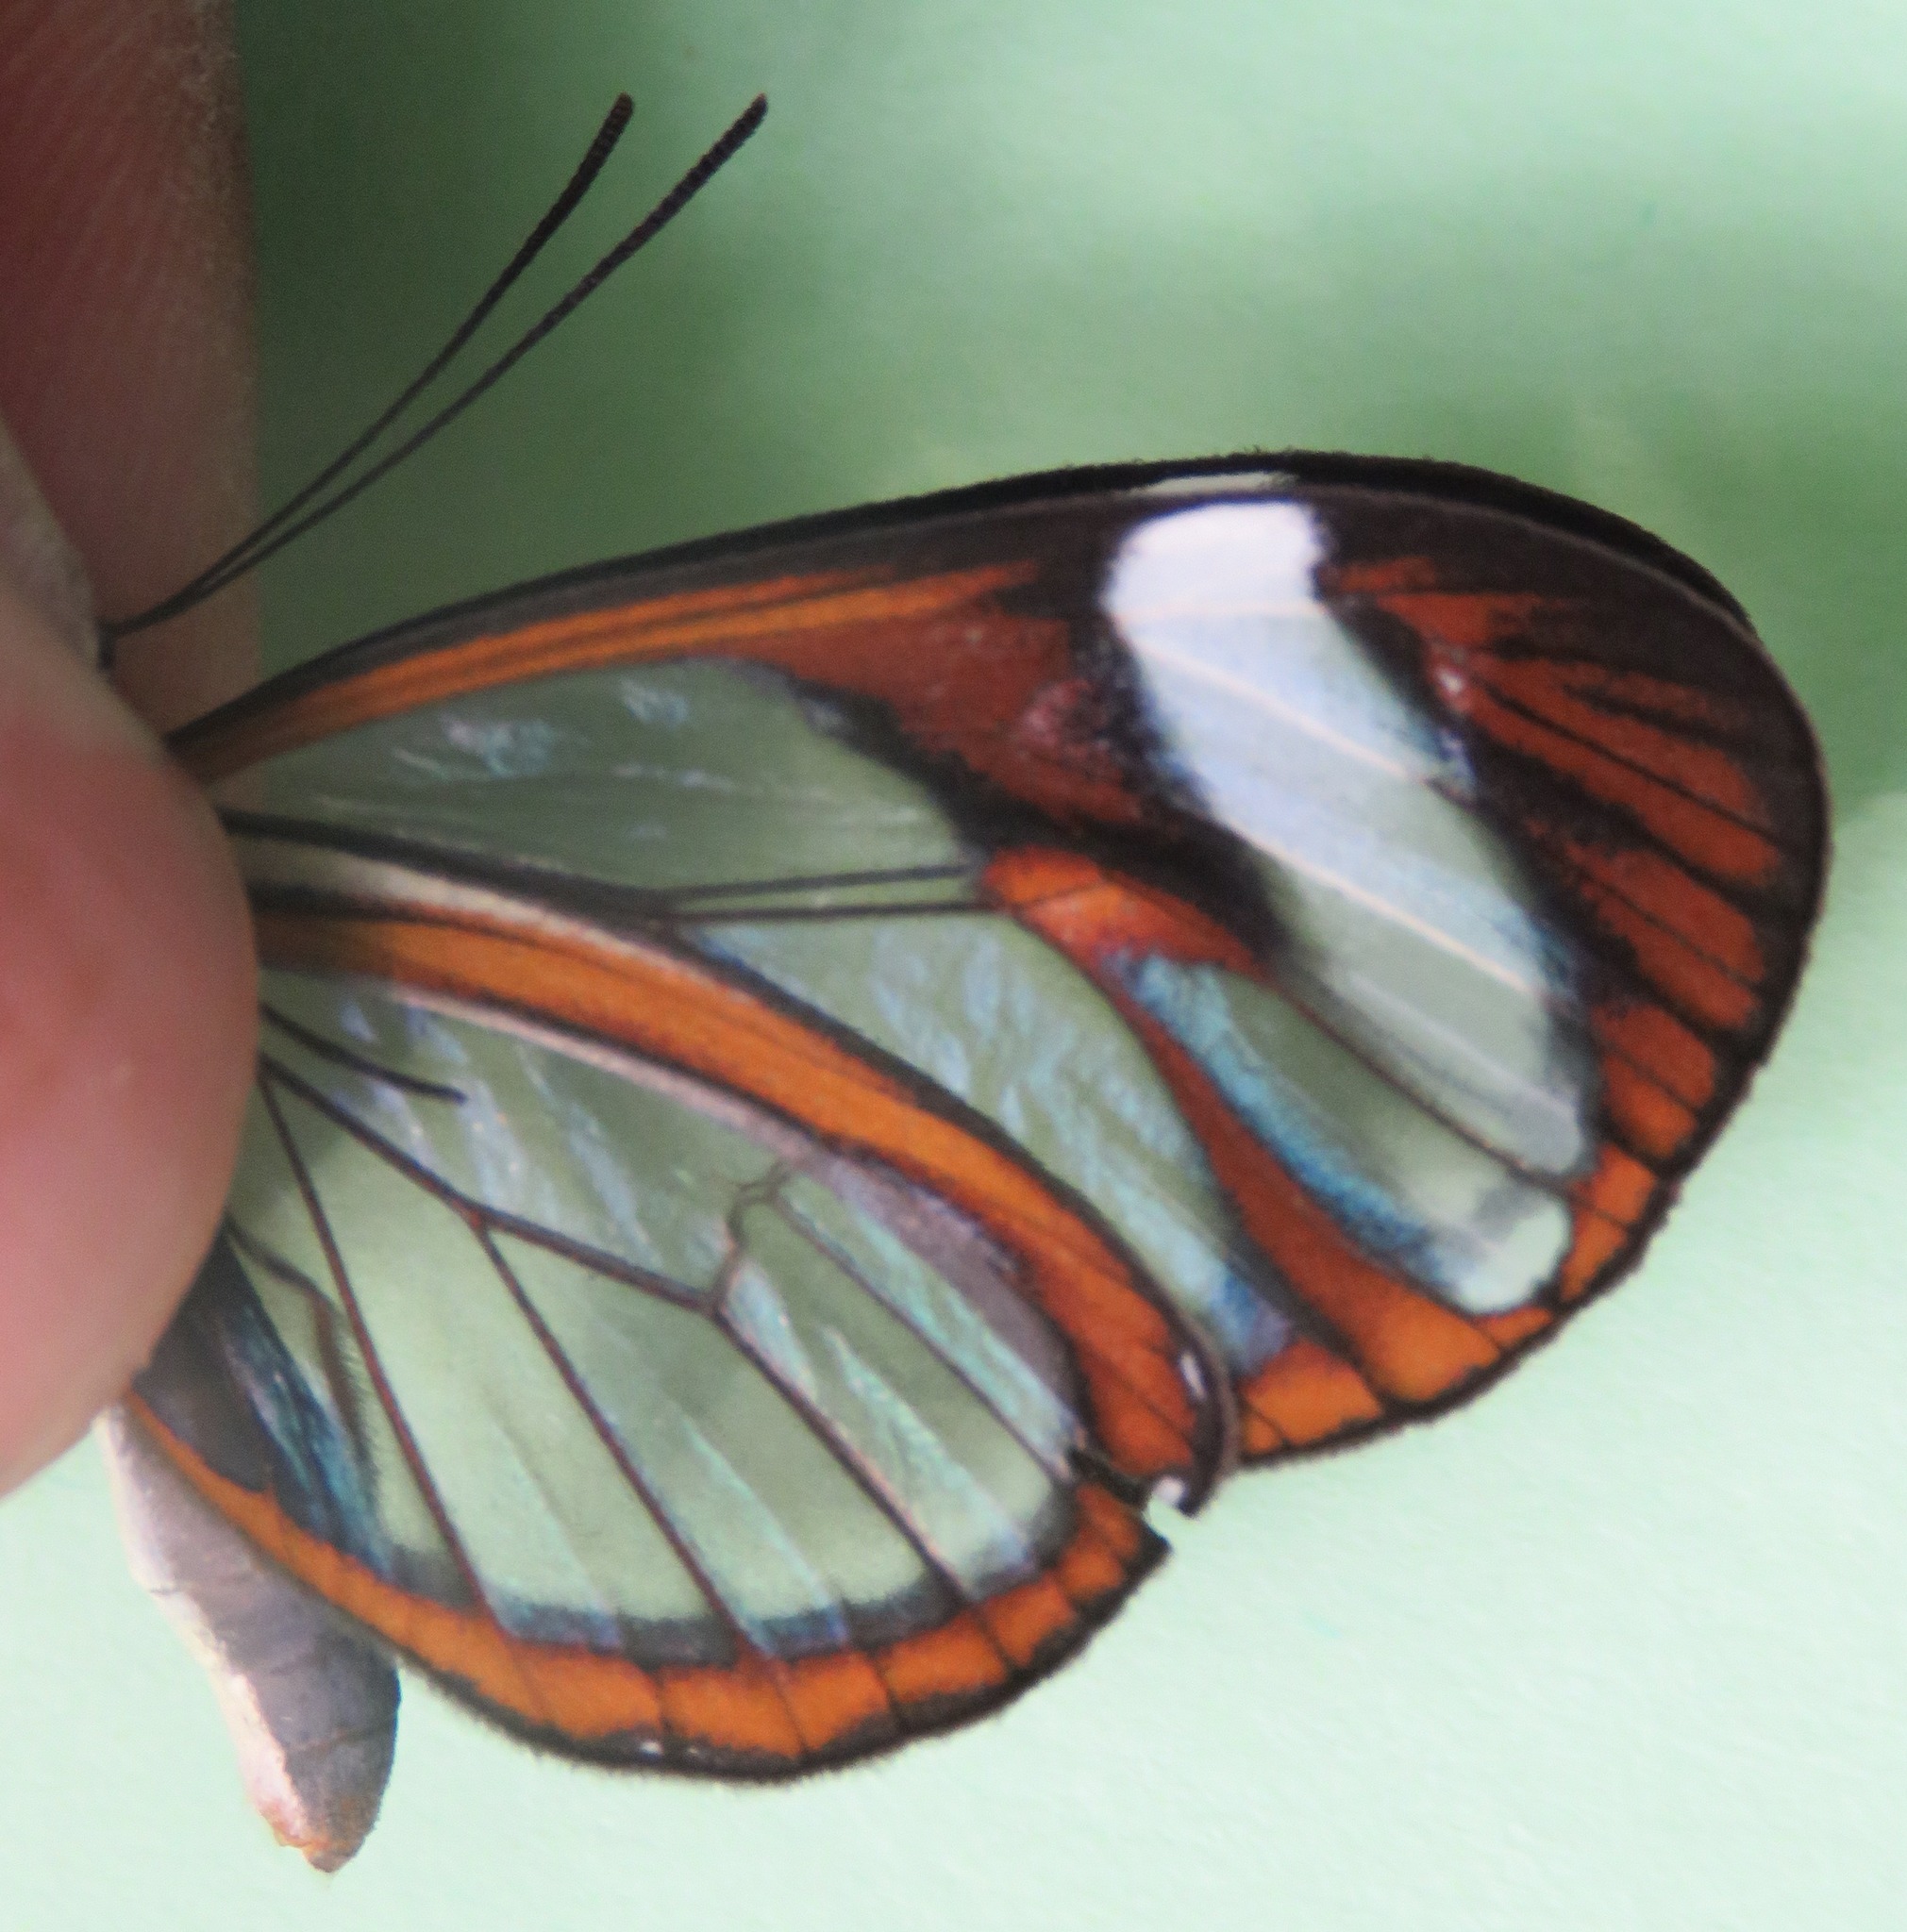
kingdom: Animalia
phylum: Arthropoda
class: Insecta
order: Lepidoptera
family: Nymphalidae
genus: Ithomia
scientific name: Ithomia patilla
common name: Patilla clearwing
